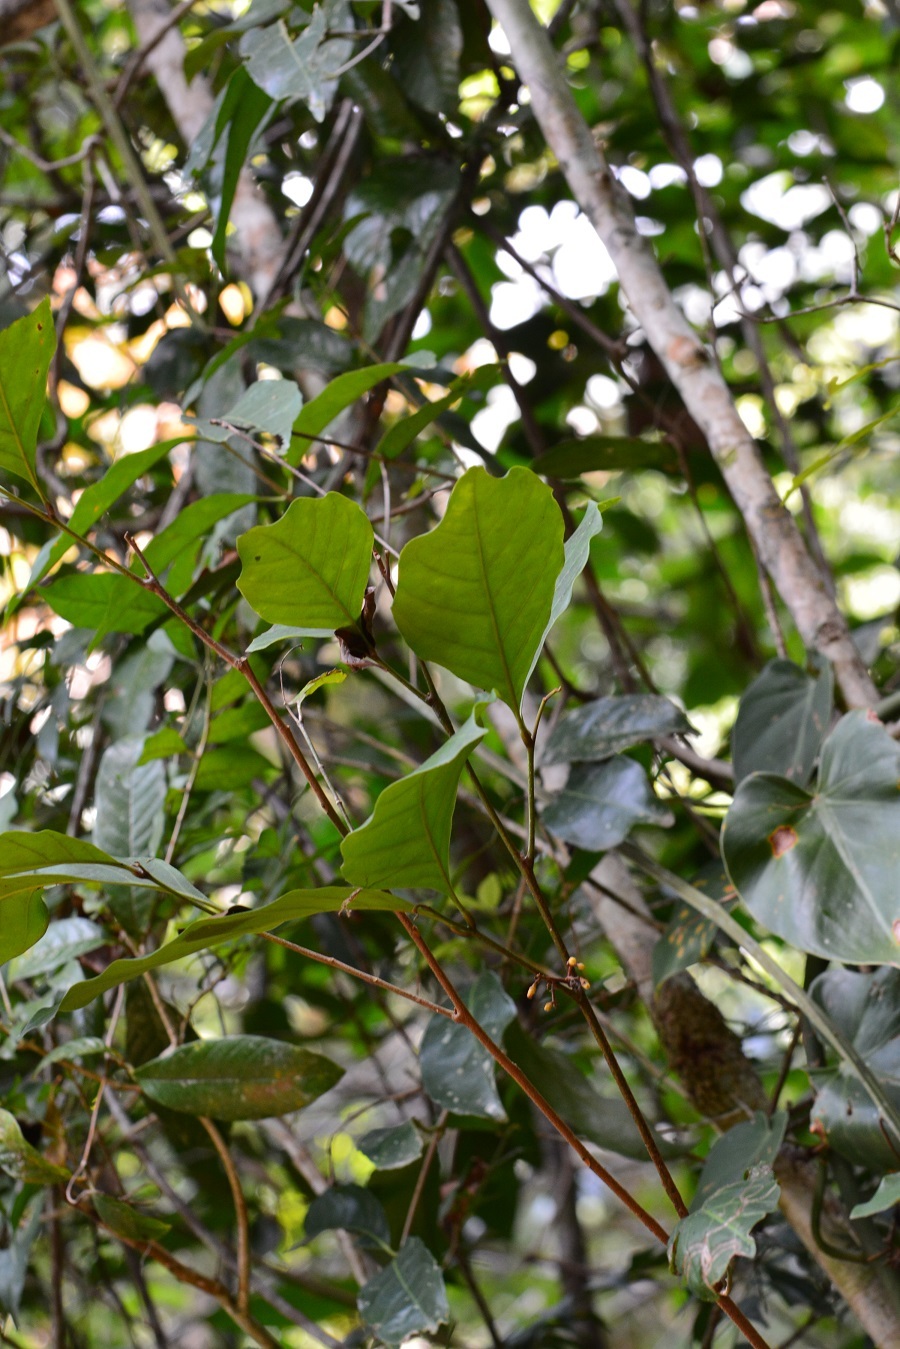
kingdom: Plantae
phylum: Tracheophyta
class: Magnoliopsida
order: Sapindales
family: Meliaceae
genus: Guarea
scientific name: Guarea glabra
